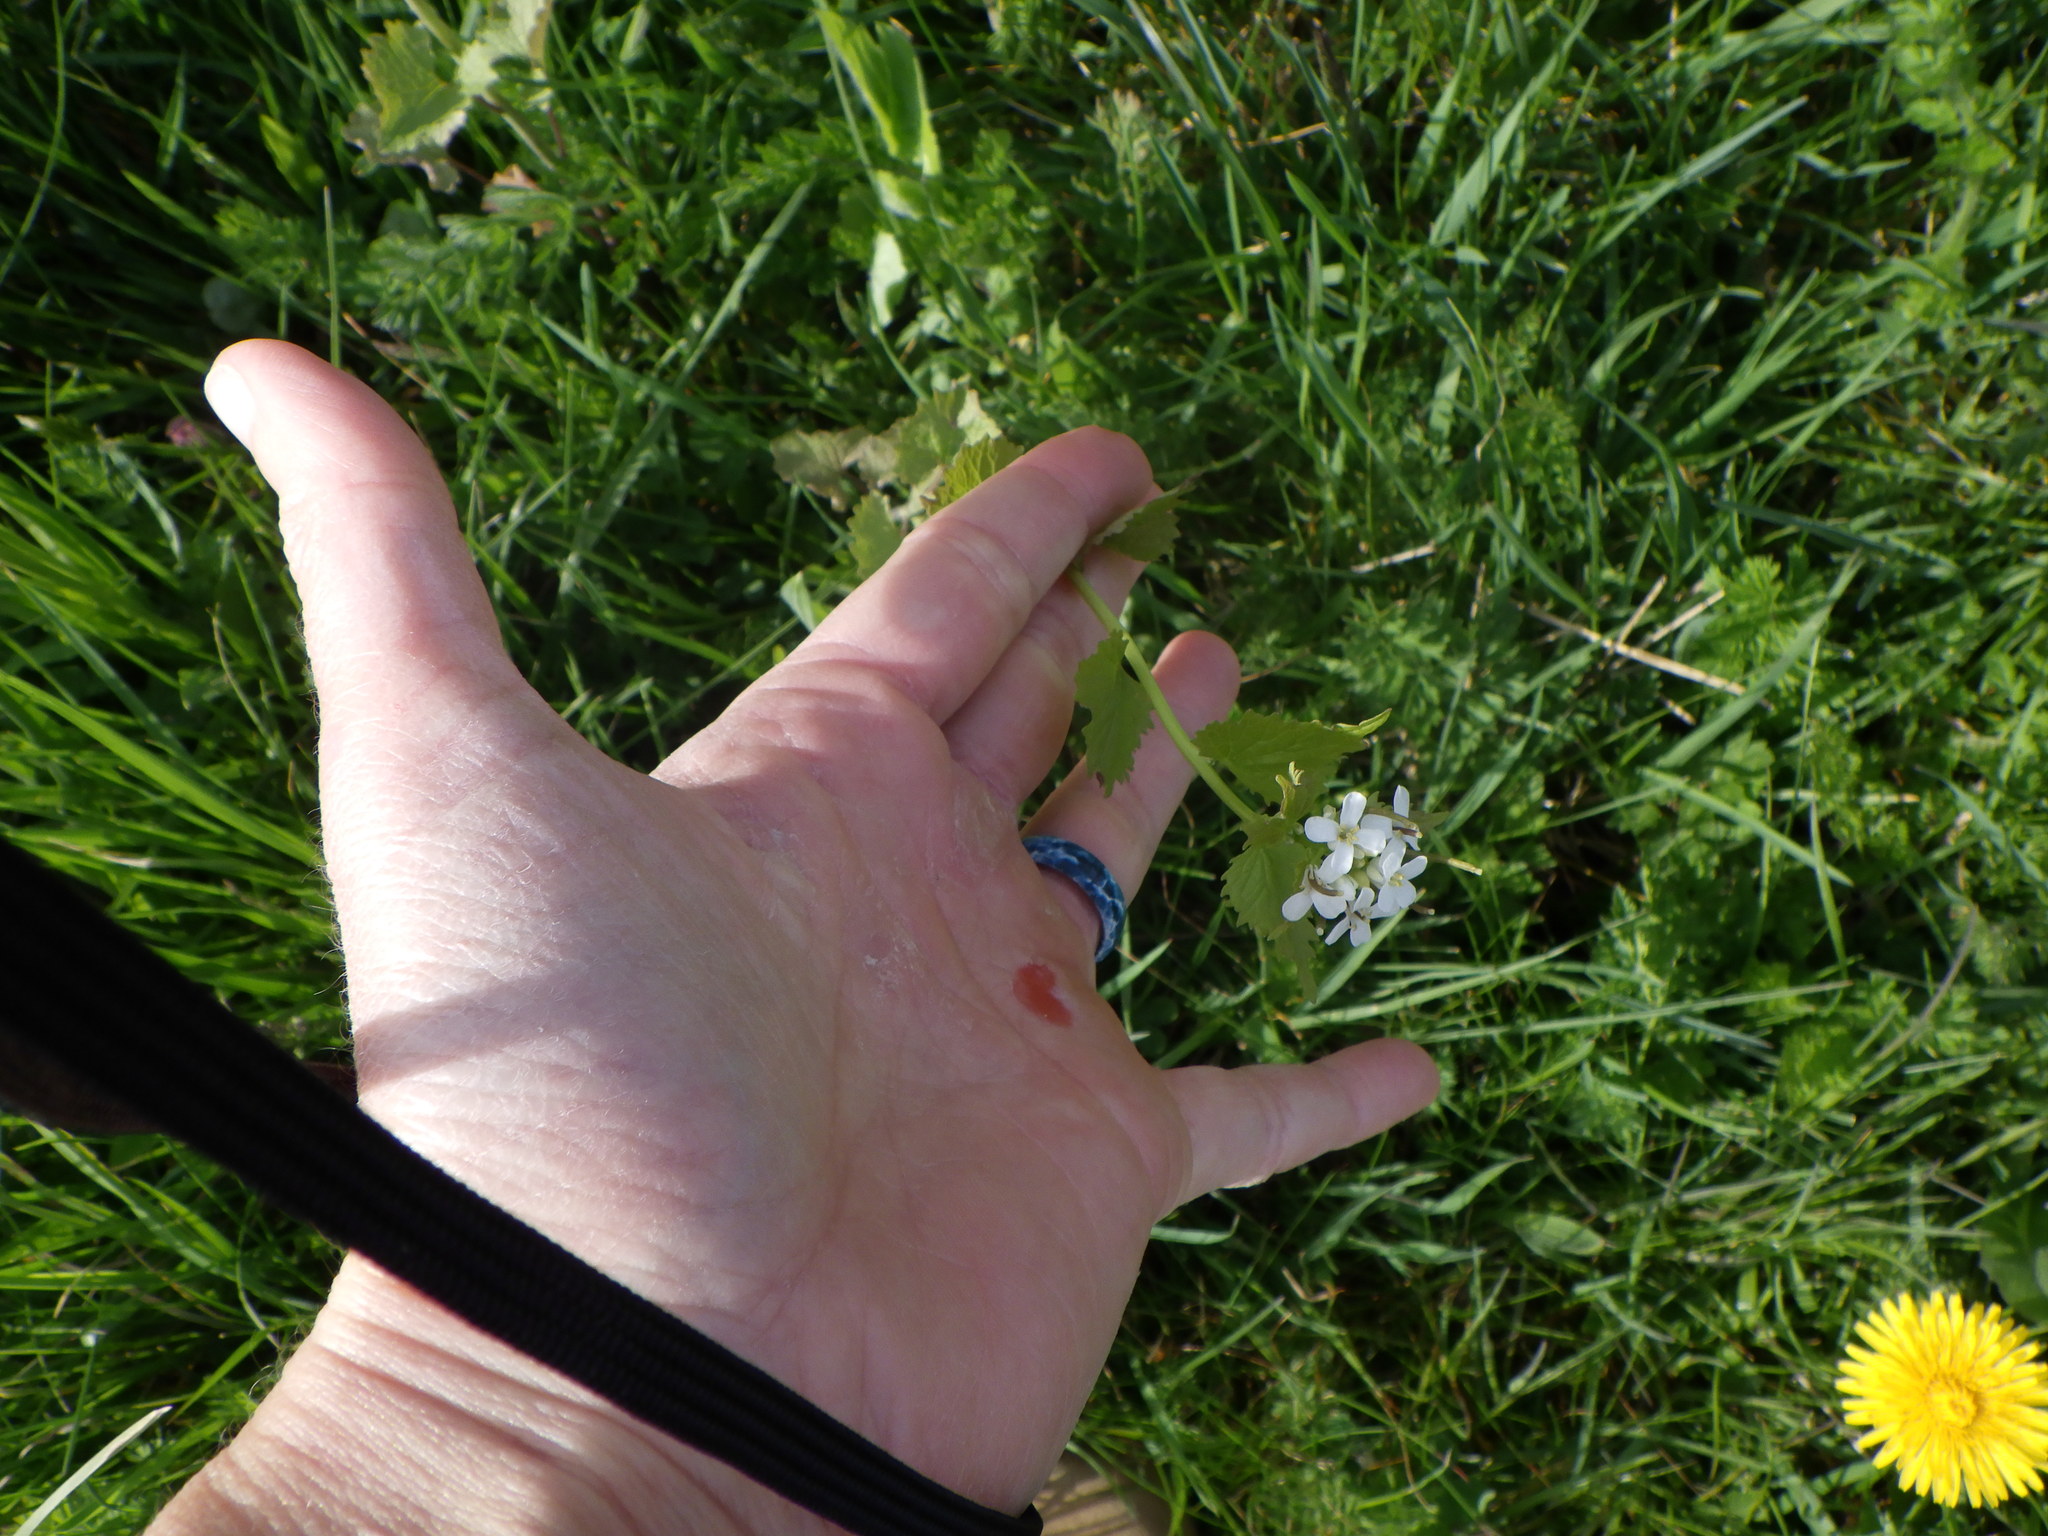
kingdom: Plantae
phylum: Tracheophyta
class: Magnoliopsida
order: Brassicales
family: Brassicaceae
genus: Alliaria
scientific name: Alliaria petiolata
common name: Garlic mustard
